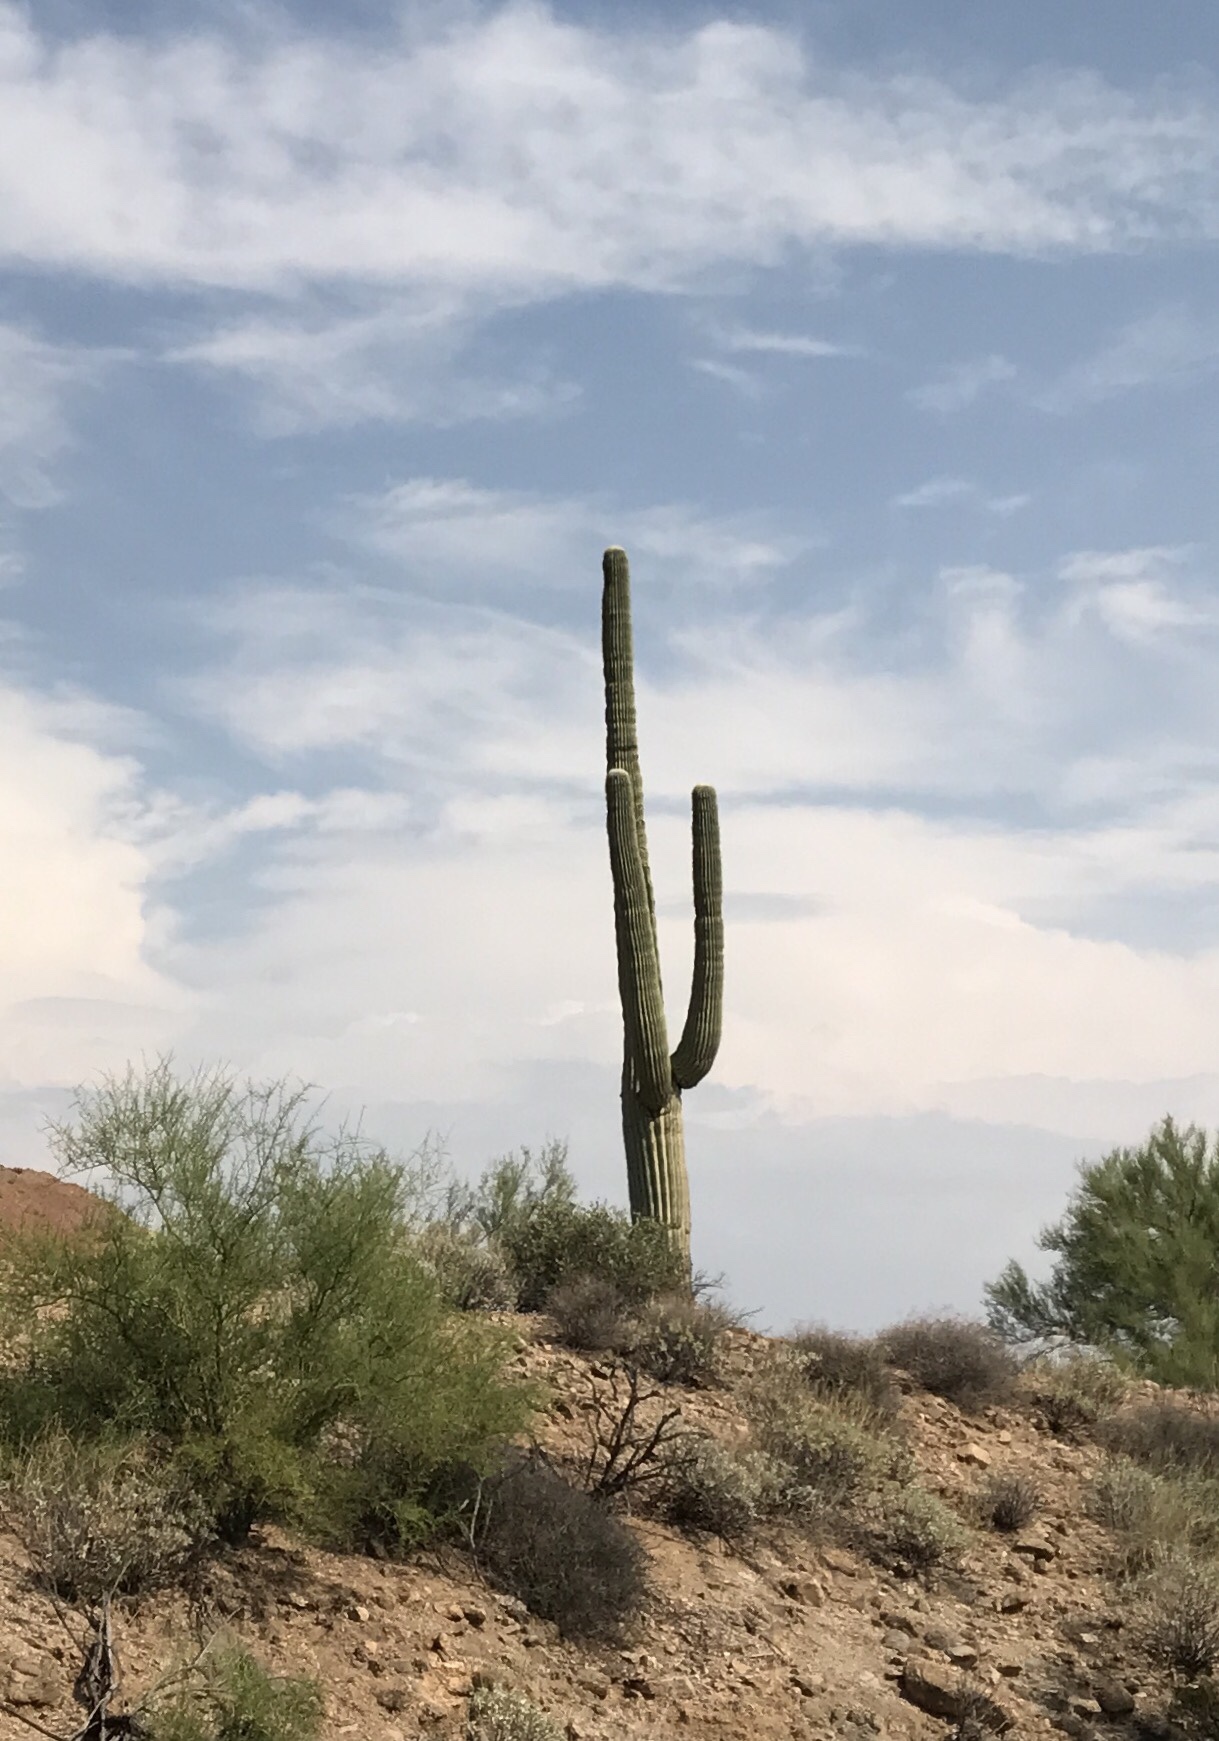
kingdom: Plantae
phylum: Tracheophyta
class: Magnoliopsida
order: Caryophyllales
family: Cactaceae
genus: Carnegiea
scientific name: Carnegiea gigantea
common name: Saguaro
